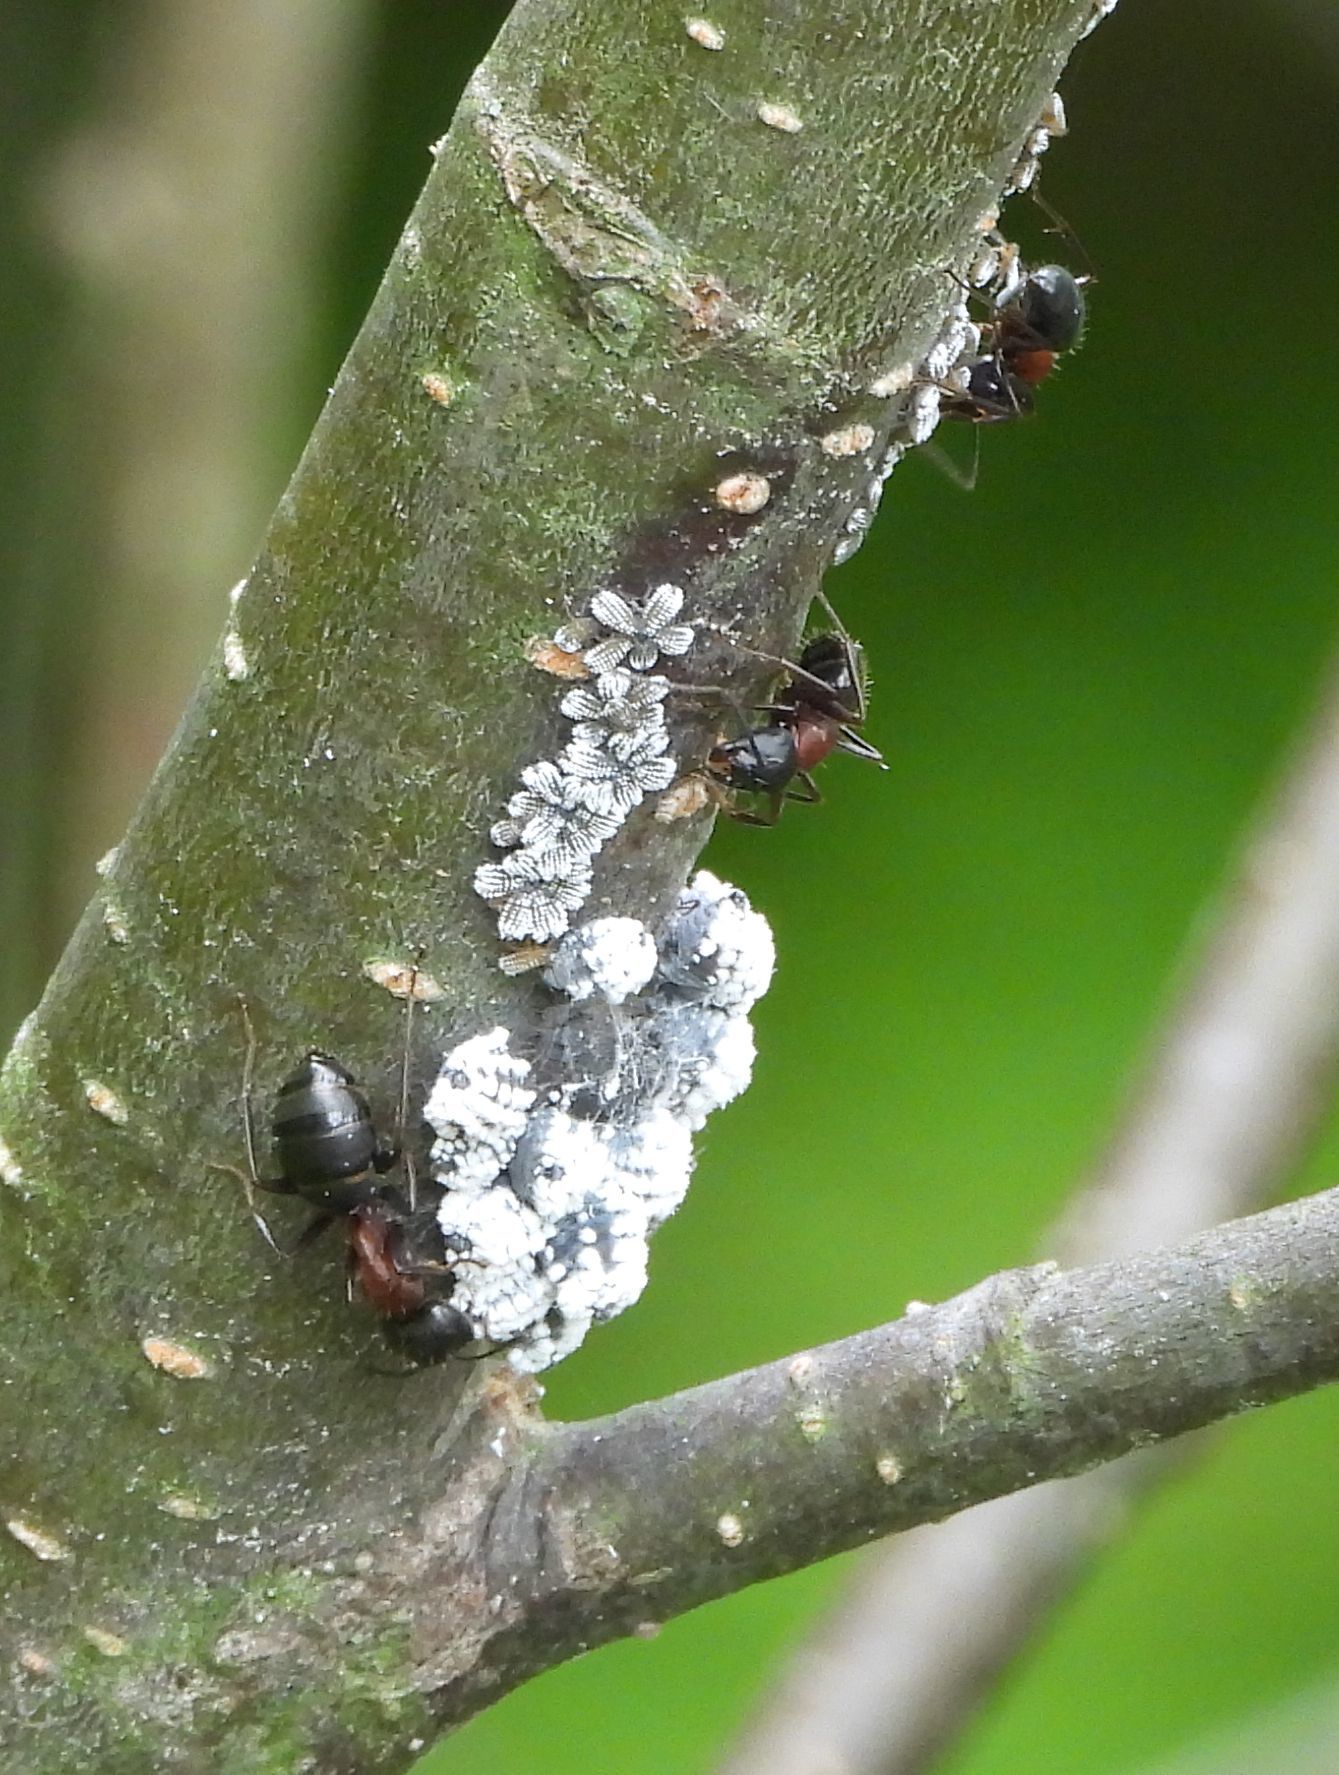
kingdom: Animalia
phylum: Arthropoda
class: Insecta
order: Hemiptera
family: Aphididae
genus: Prociphilus
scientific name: Prociphilus tessellatus
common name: Woolly alder aphid
